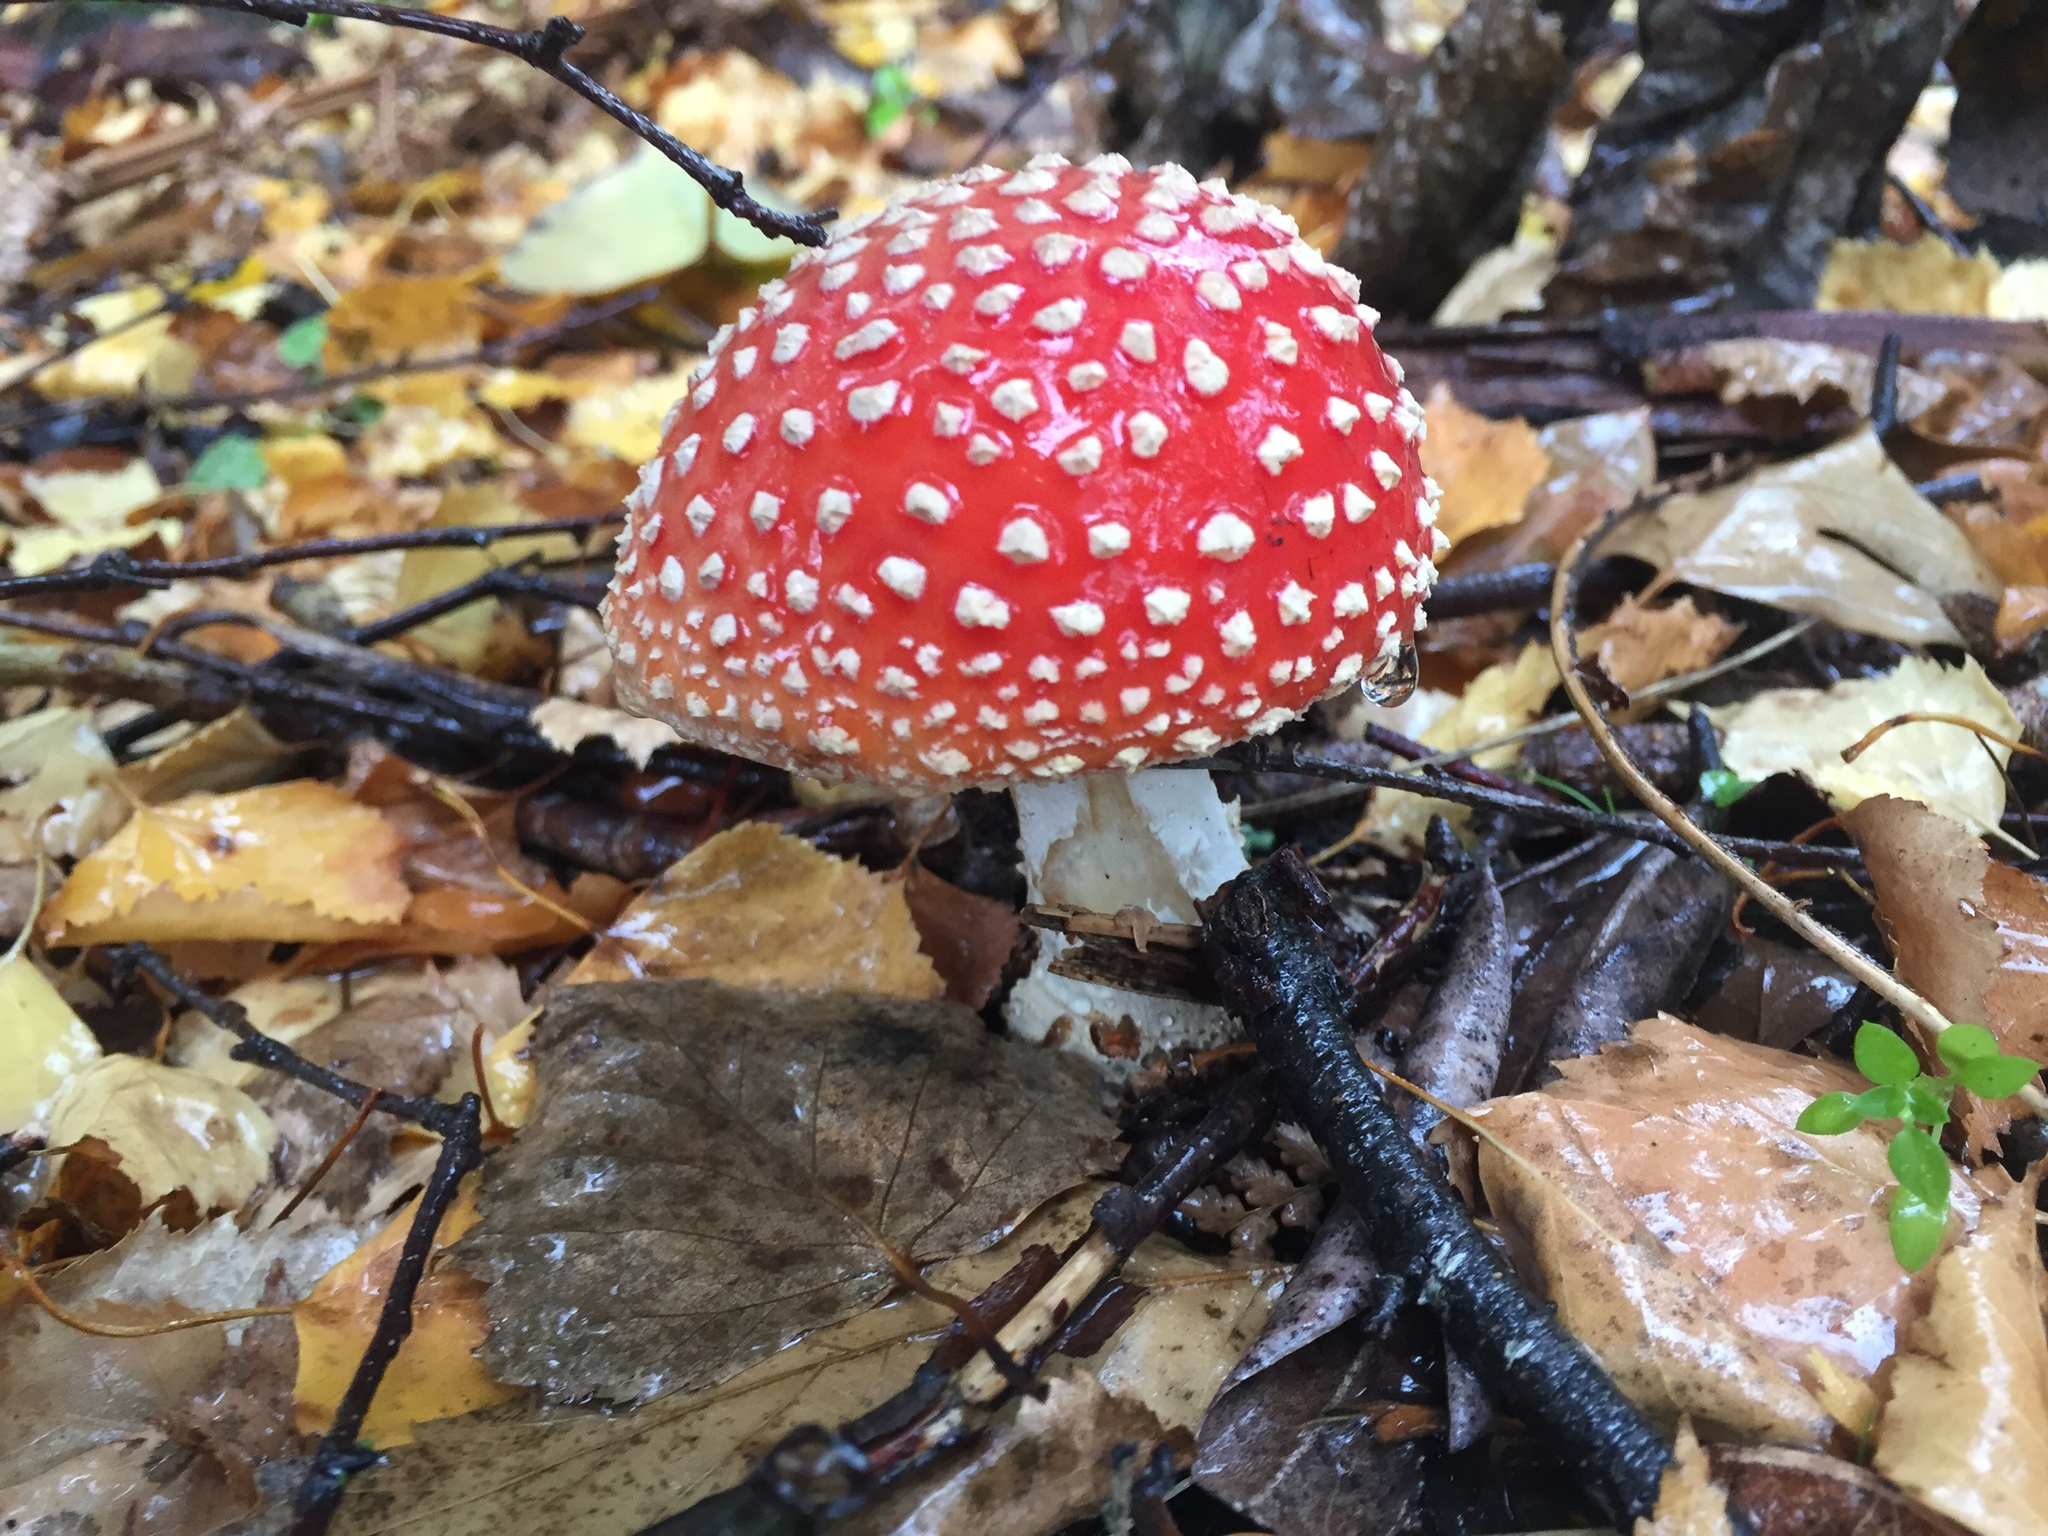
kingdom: Fungi
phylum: Basidiomycota
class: Agaricomycetes
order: Agaricales
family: Amanitaceae
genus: Amanita
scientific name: Amanita muscaria
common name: Fly agaric
